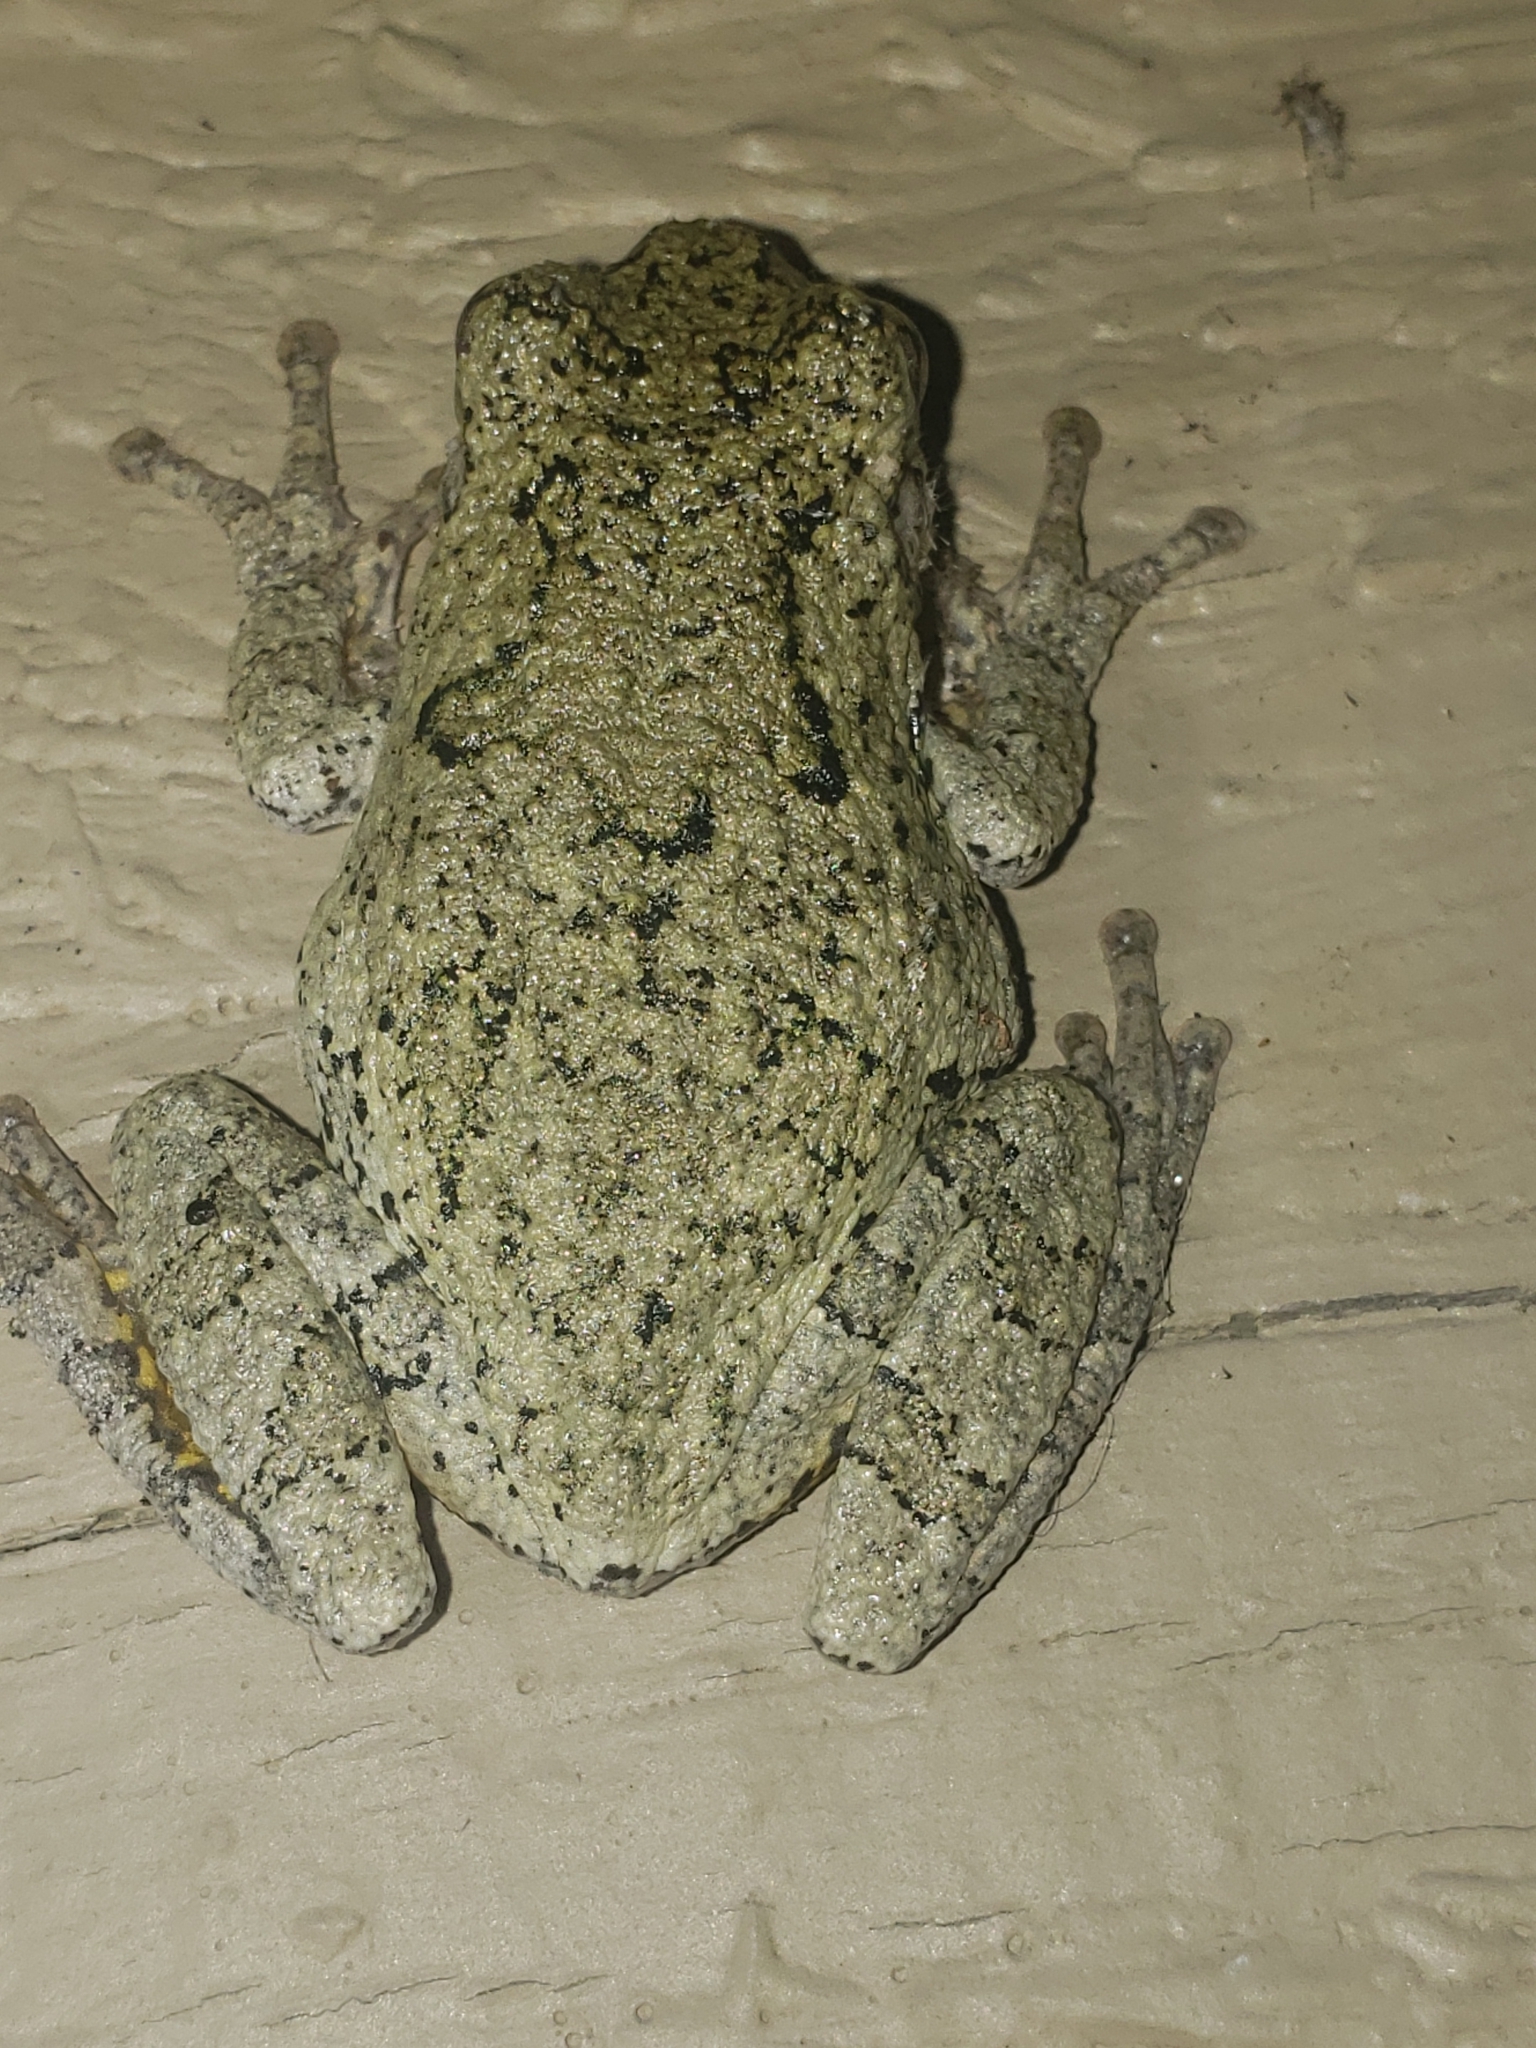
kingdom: Animalia
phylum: Chordata
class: Amphibia
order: Anura
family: Hylidae
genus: Hyla
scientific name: Hyla
